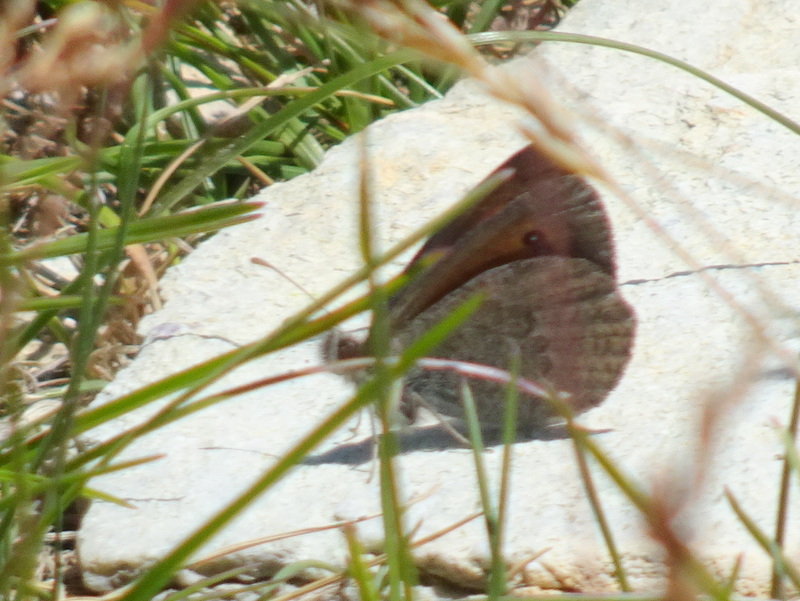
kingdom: Animalia
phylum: Arthropoda
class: Insecta
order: Lepidoptera
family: Nymphalidae
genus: Erebia
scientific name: Erebia cassioides
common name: Common brassy ringlet
